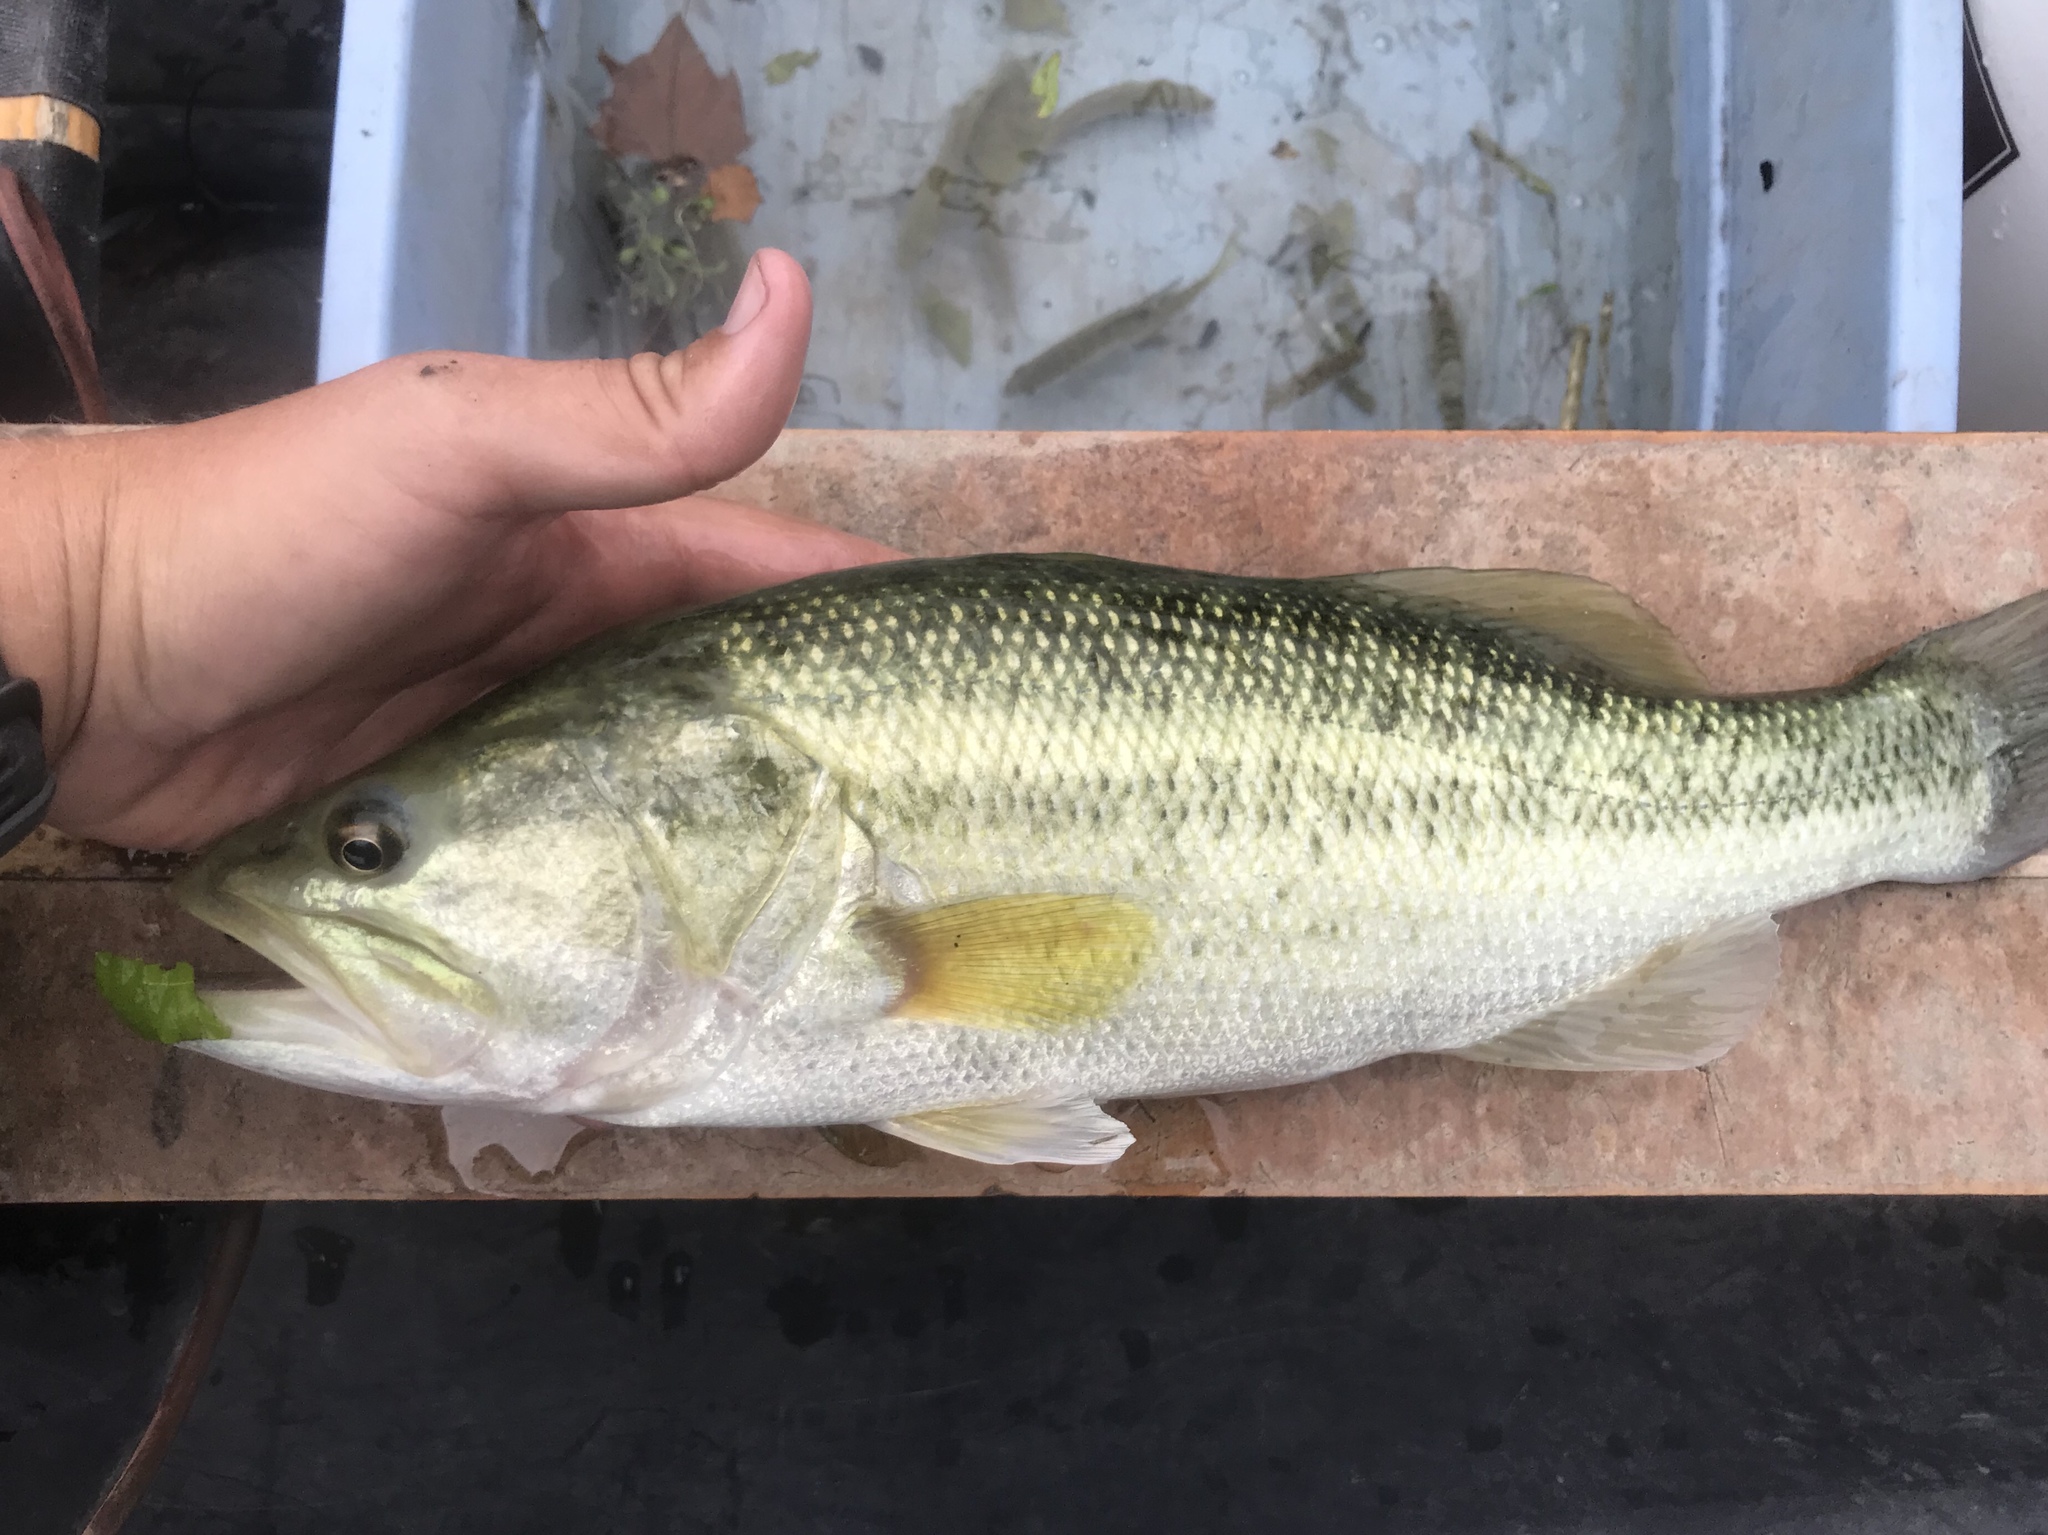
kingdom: Animalia
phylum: Chordata
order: Perciformes
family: Centrarchidae
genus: Micropterus
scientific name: Micropterus
